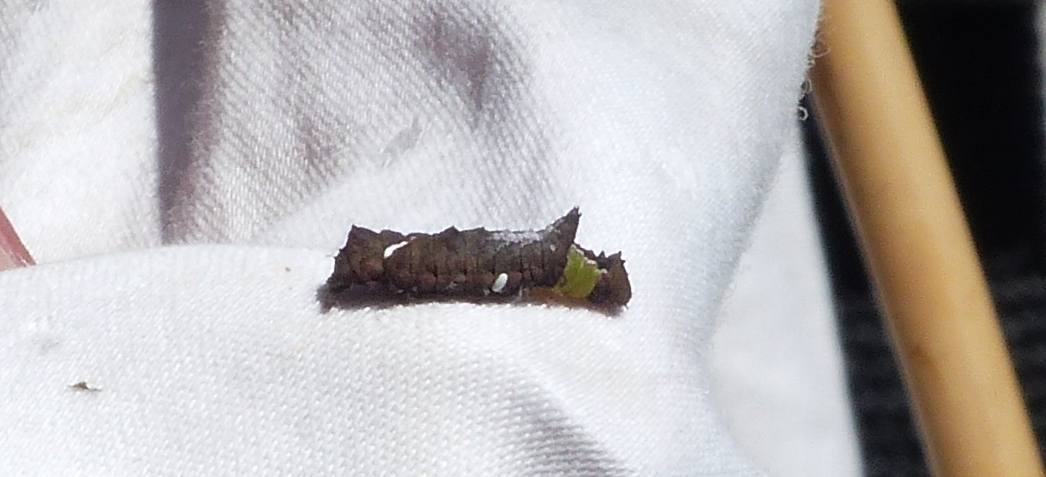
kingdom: Animalia
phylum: Arthropoda
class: Insecta
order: Lepidoptera
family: Notodontidae
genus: Schizura
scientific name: Schizura
